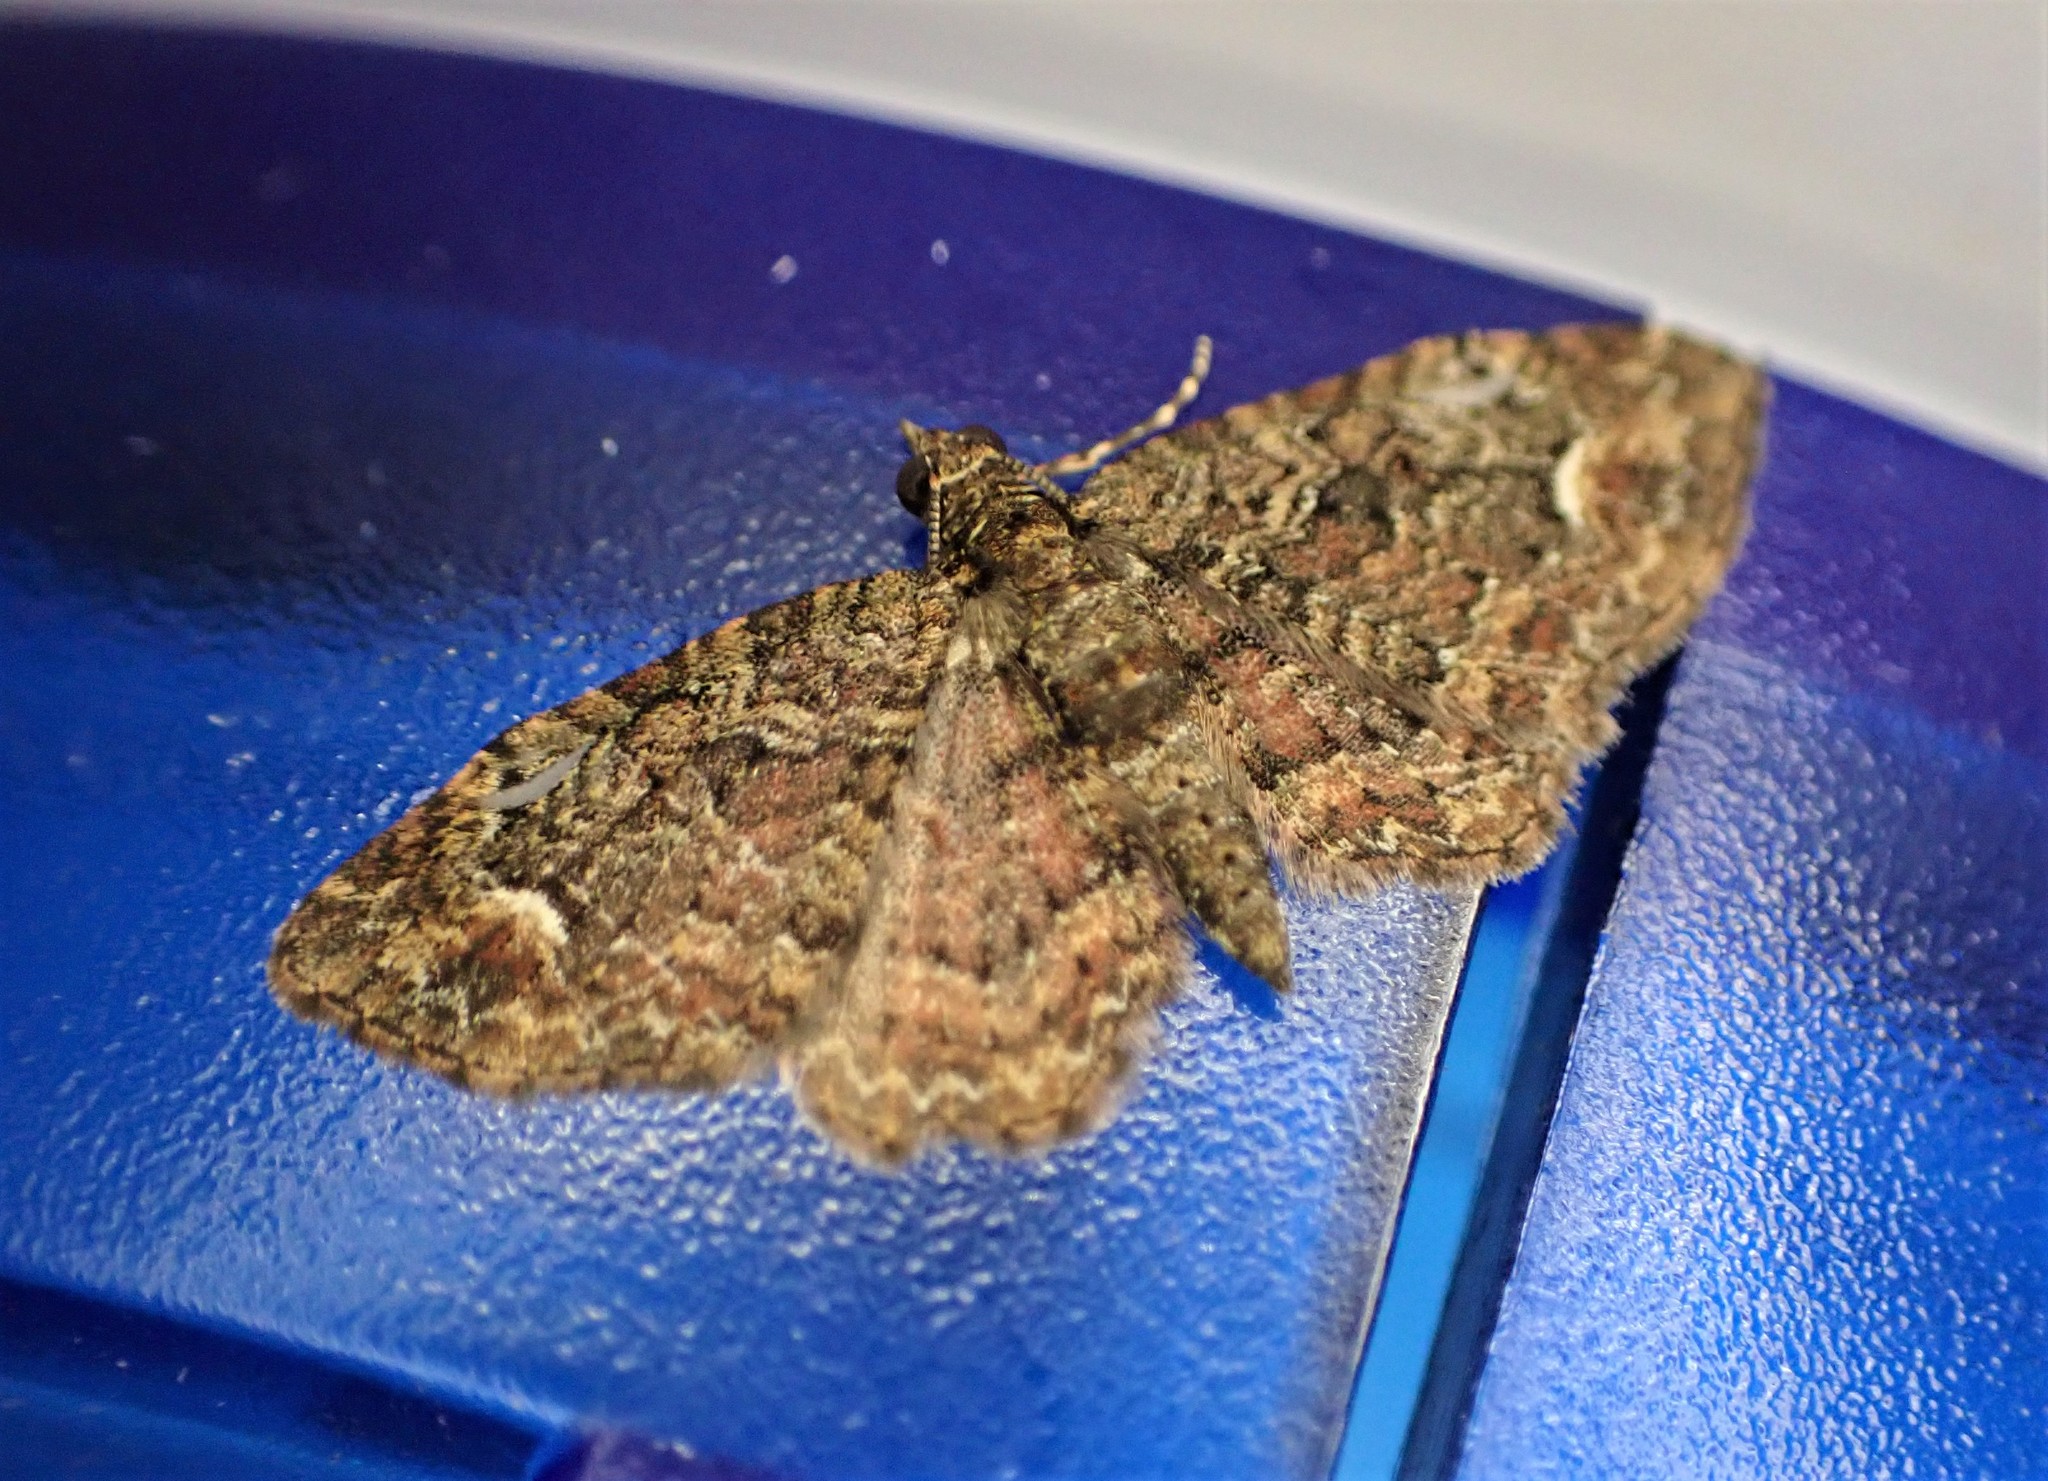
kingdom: Animalia
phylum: Arthropoda
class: Insecta
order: Lepidoptera
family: Geometridae
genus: Pasiphilodes
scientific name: Pasiphilodes testulata
